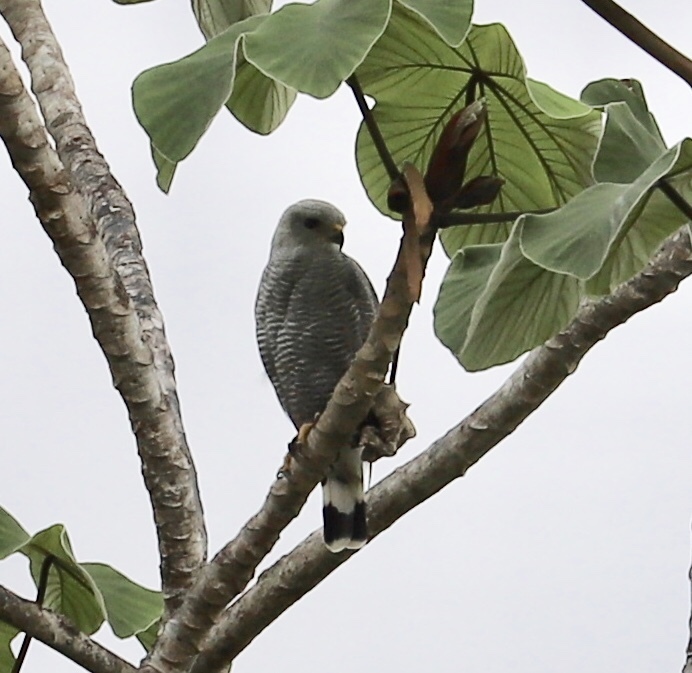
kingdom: Animalia
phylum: Chordata
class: Aves
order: Accipitriformes
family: Accipitridae
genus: Buteo
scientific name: Buteo nitidus
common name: Grey-lined hawk
